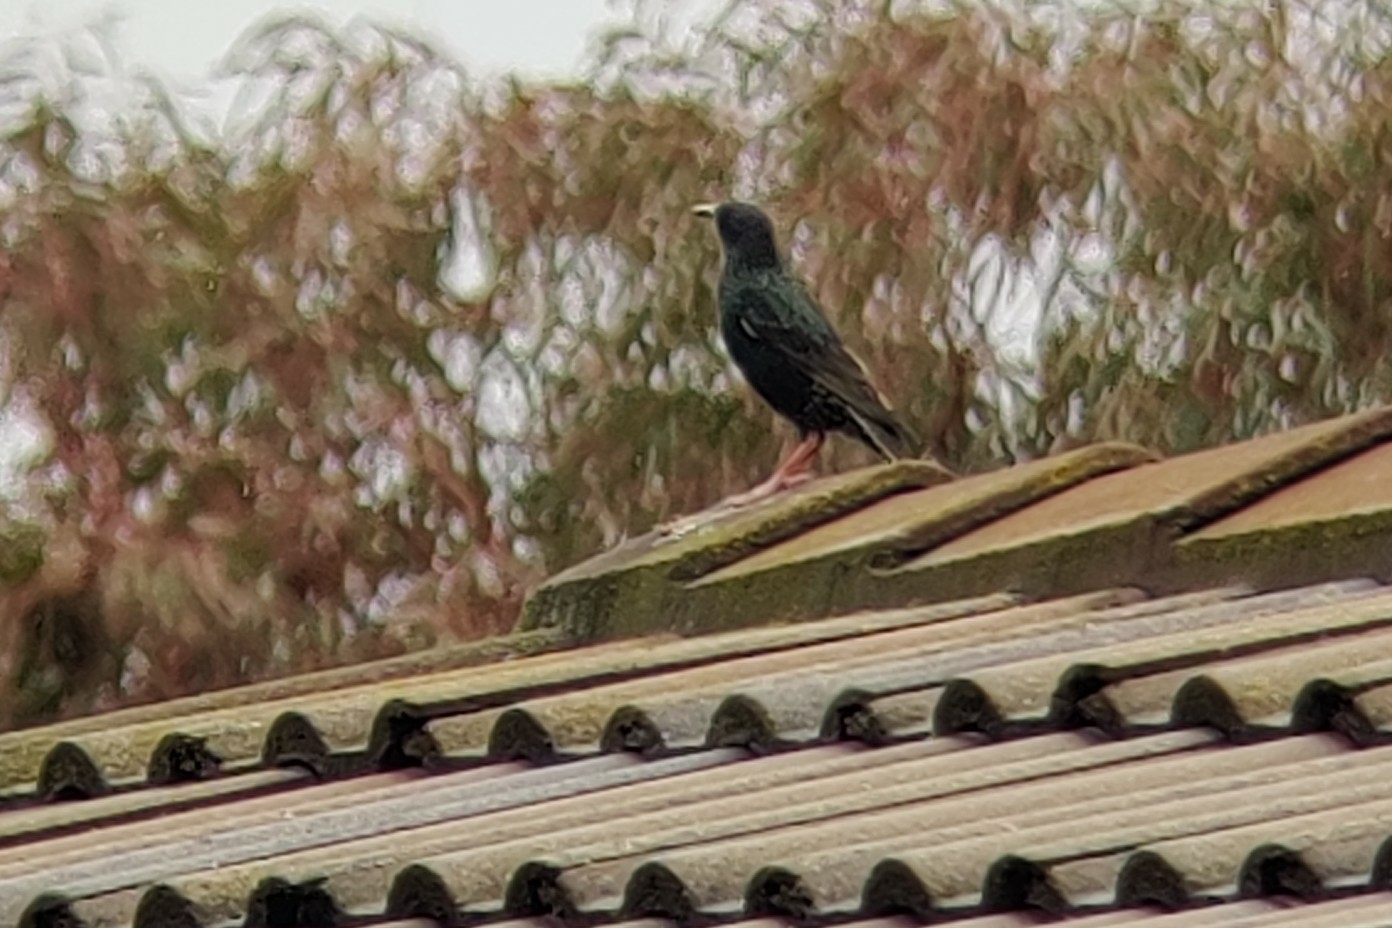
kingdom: Animalia
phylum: Chordata
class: Aves
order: Passeriformes
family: Sturnidae
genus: Sturnus
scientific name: Sturnus vulgaris
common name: Common starling
